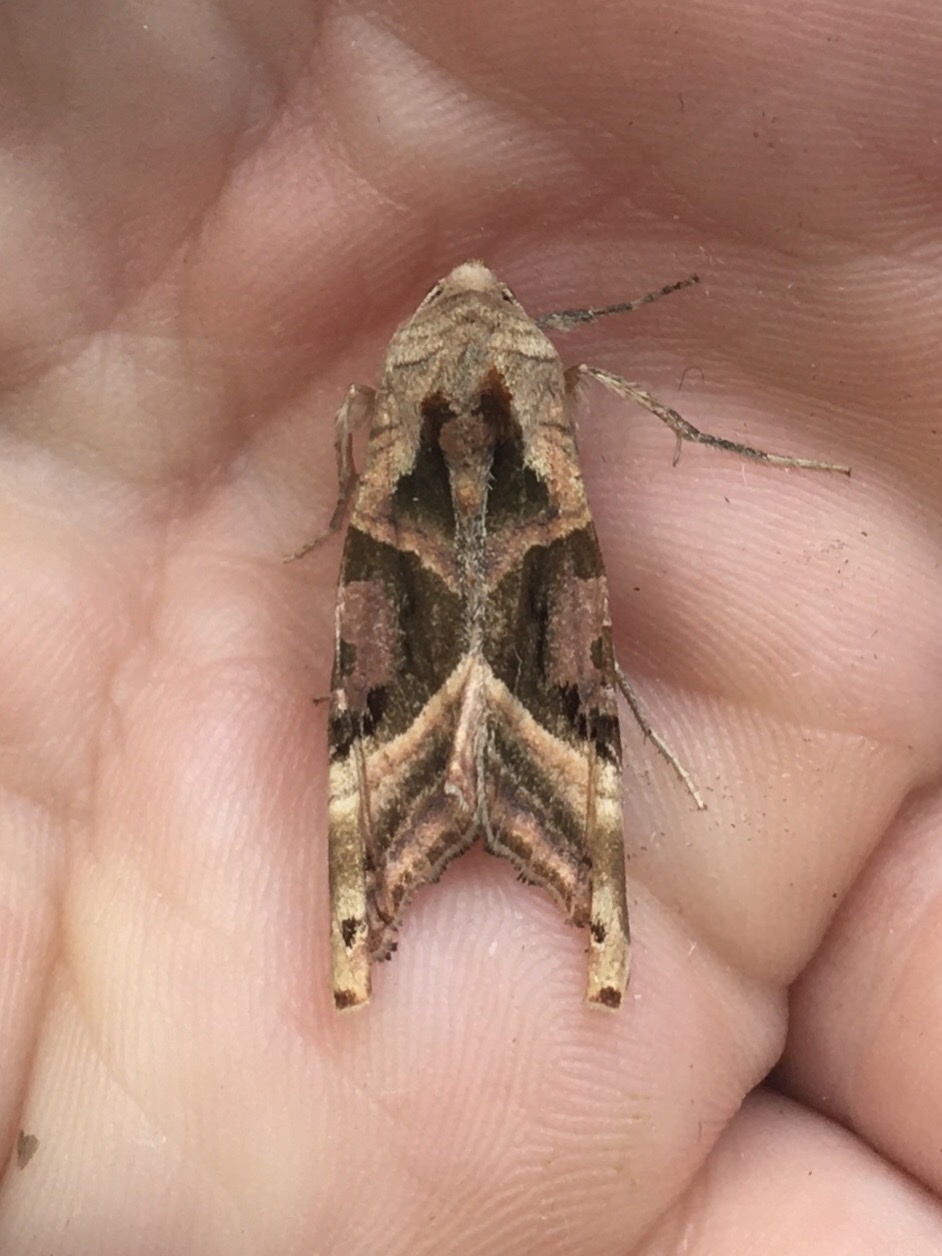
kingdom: Animalia
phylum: Arthropoda
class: Insecta
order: Lepidoptera
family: Noctuidae
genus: Phlogophora
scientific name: Phlogophora iris
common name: Olive angle shades
